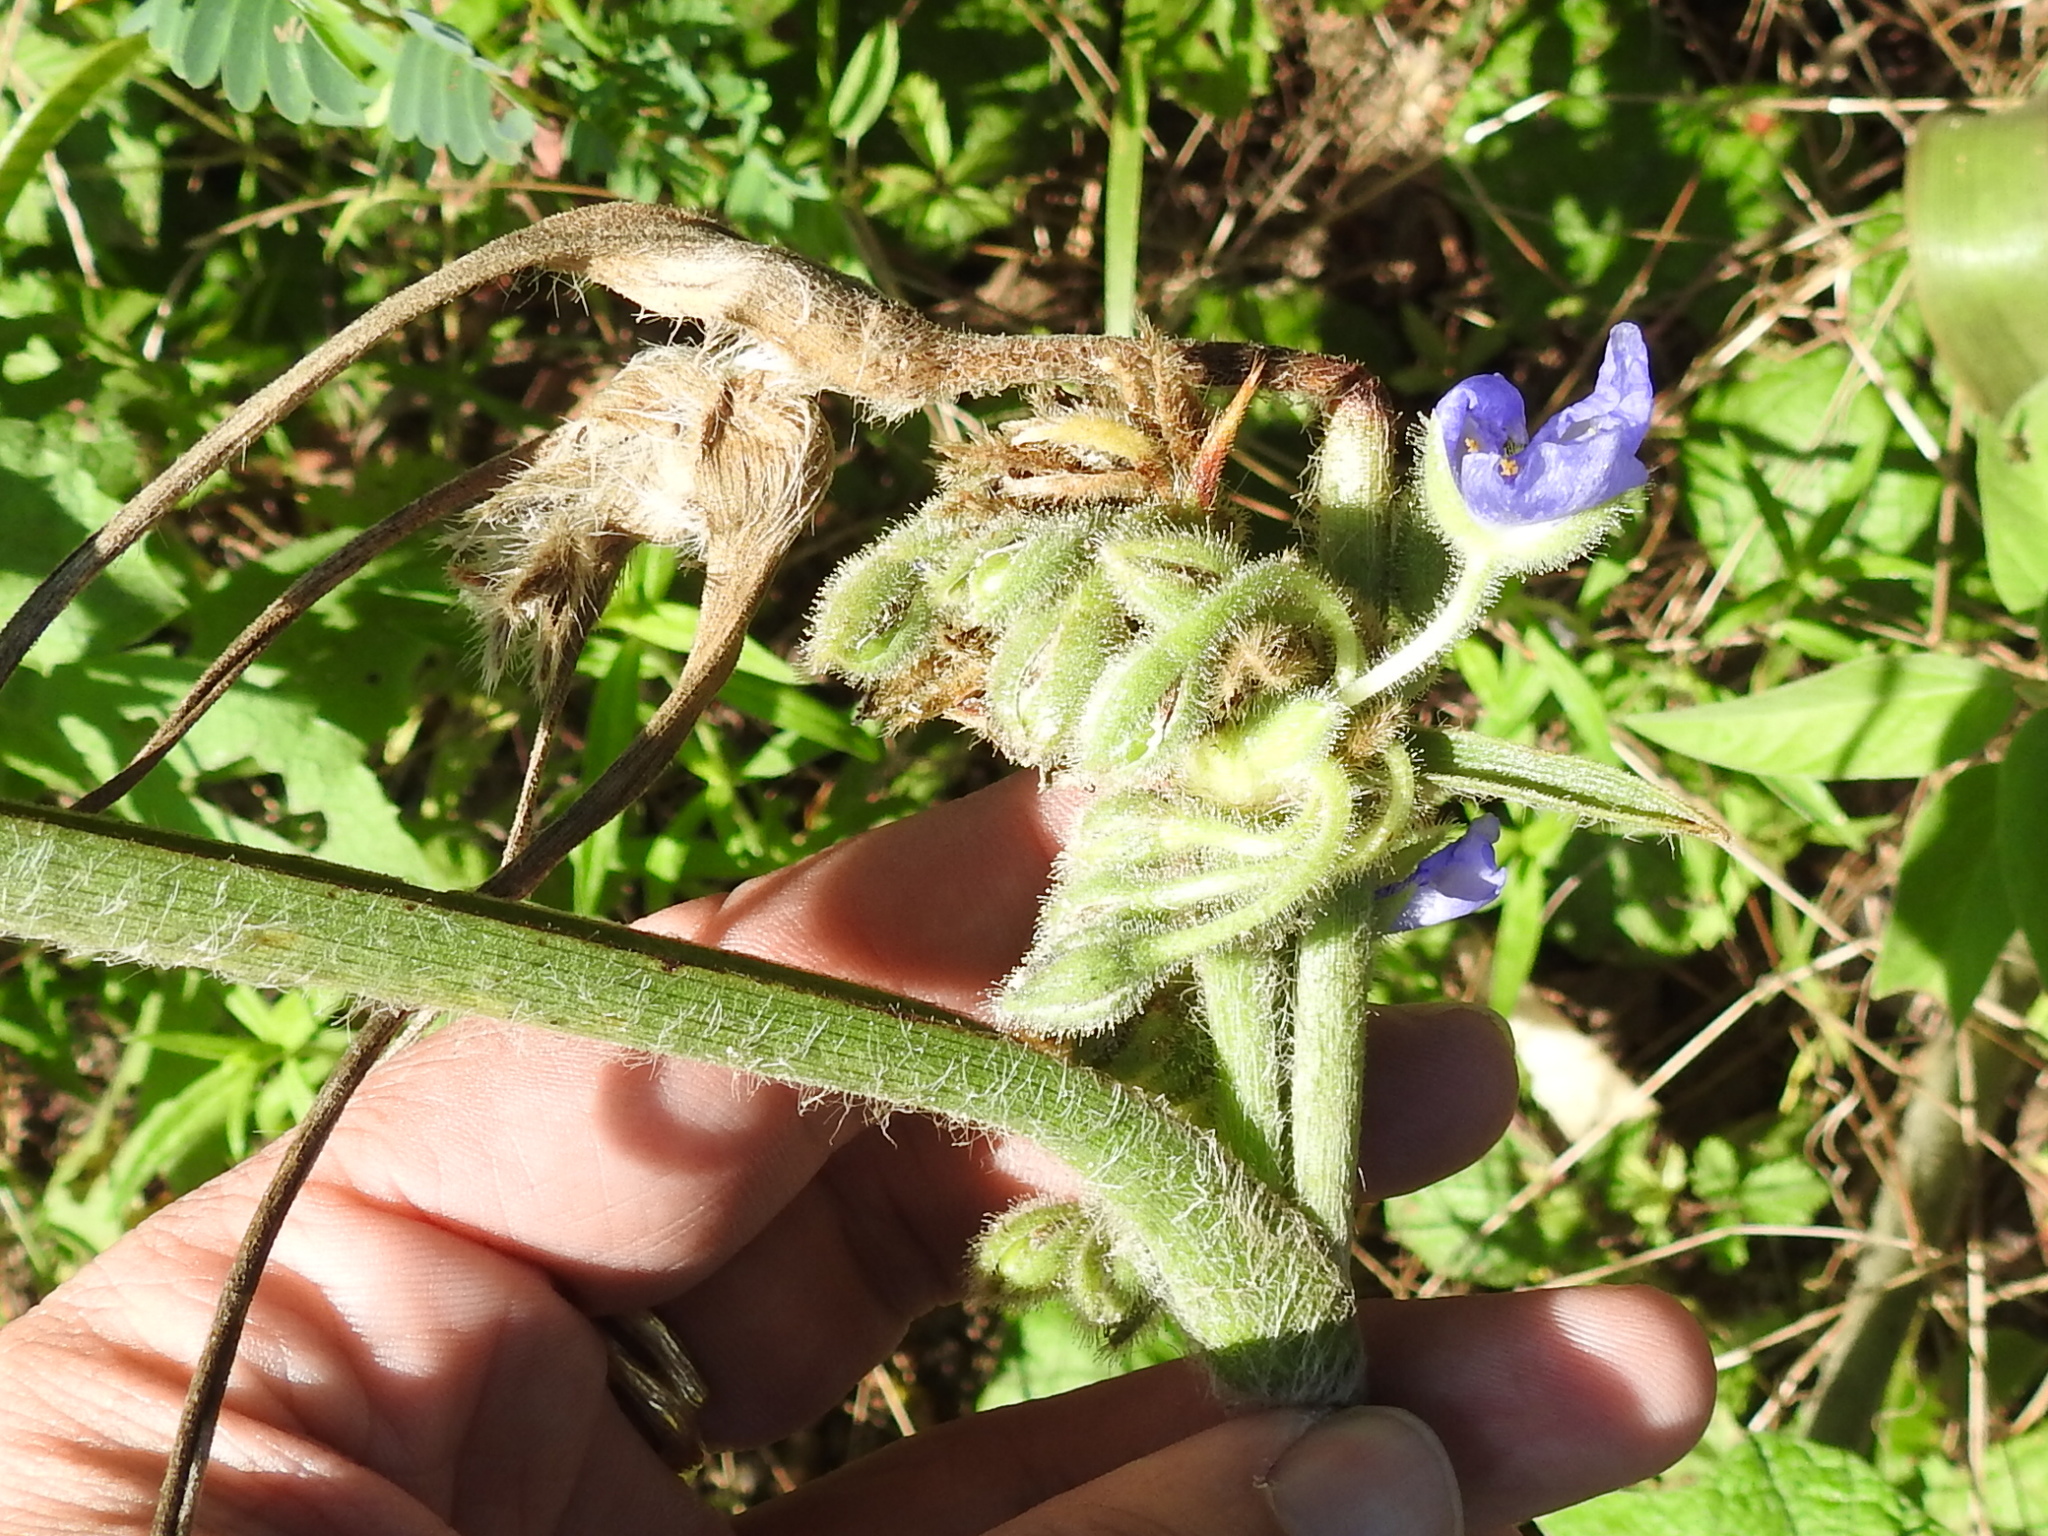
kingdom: Plantae
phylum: Tracheophyta
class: Liliopsida
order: Commelinales
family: Commelinaceae
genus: Tradescantia
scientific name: Tradescantia hirsutiflora
